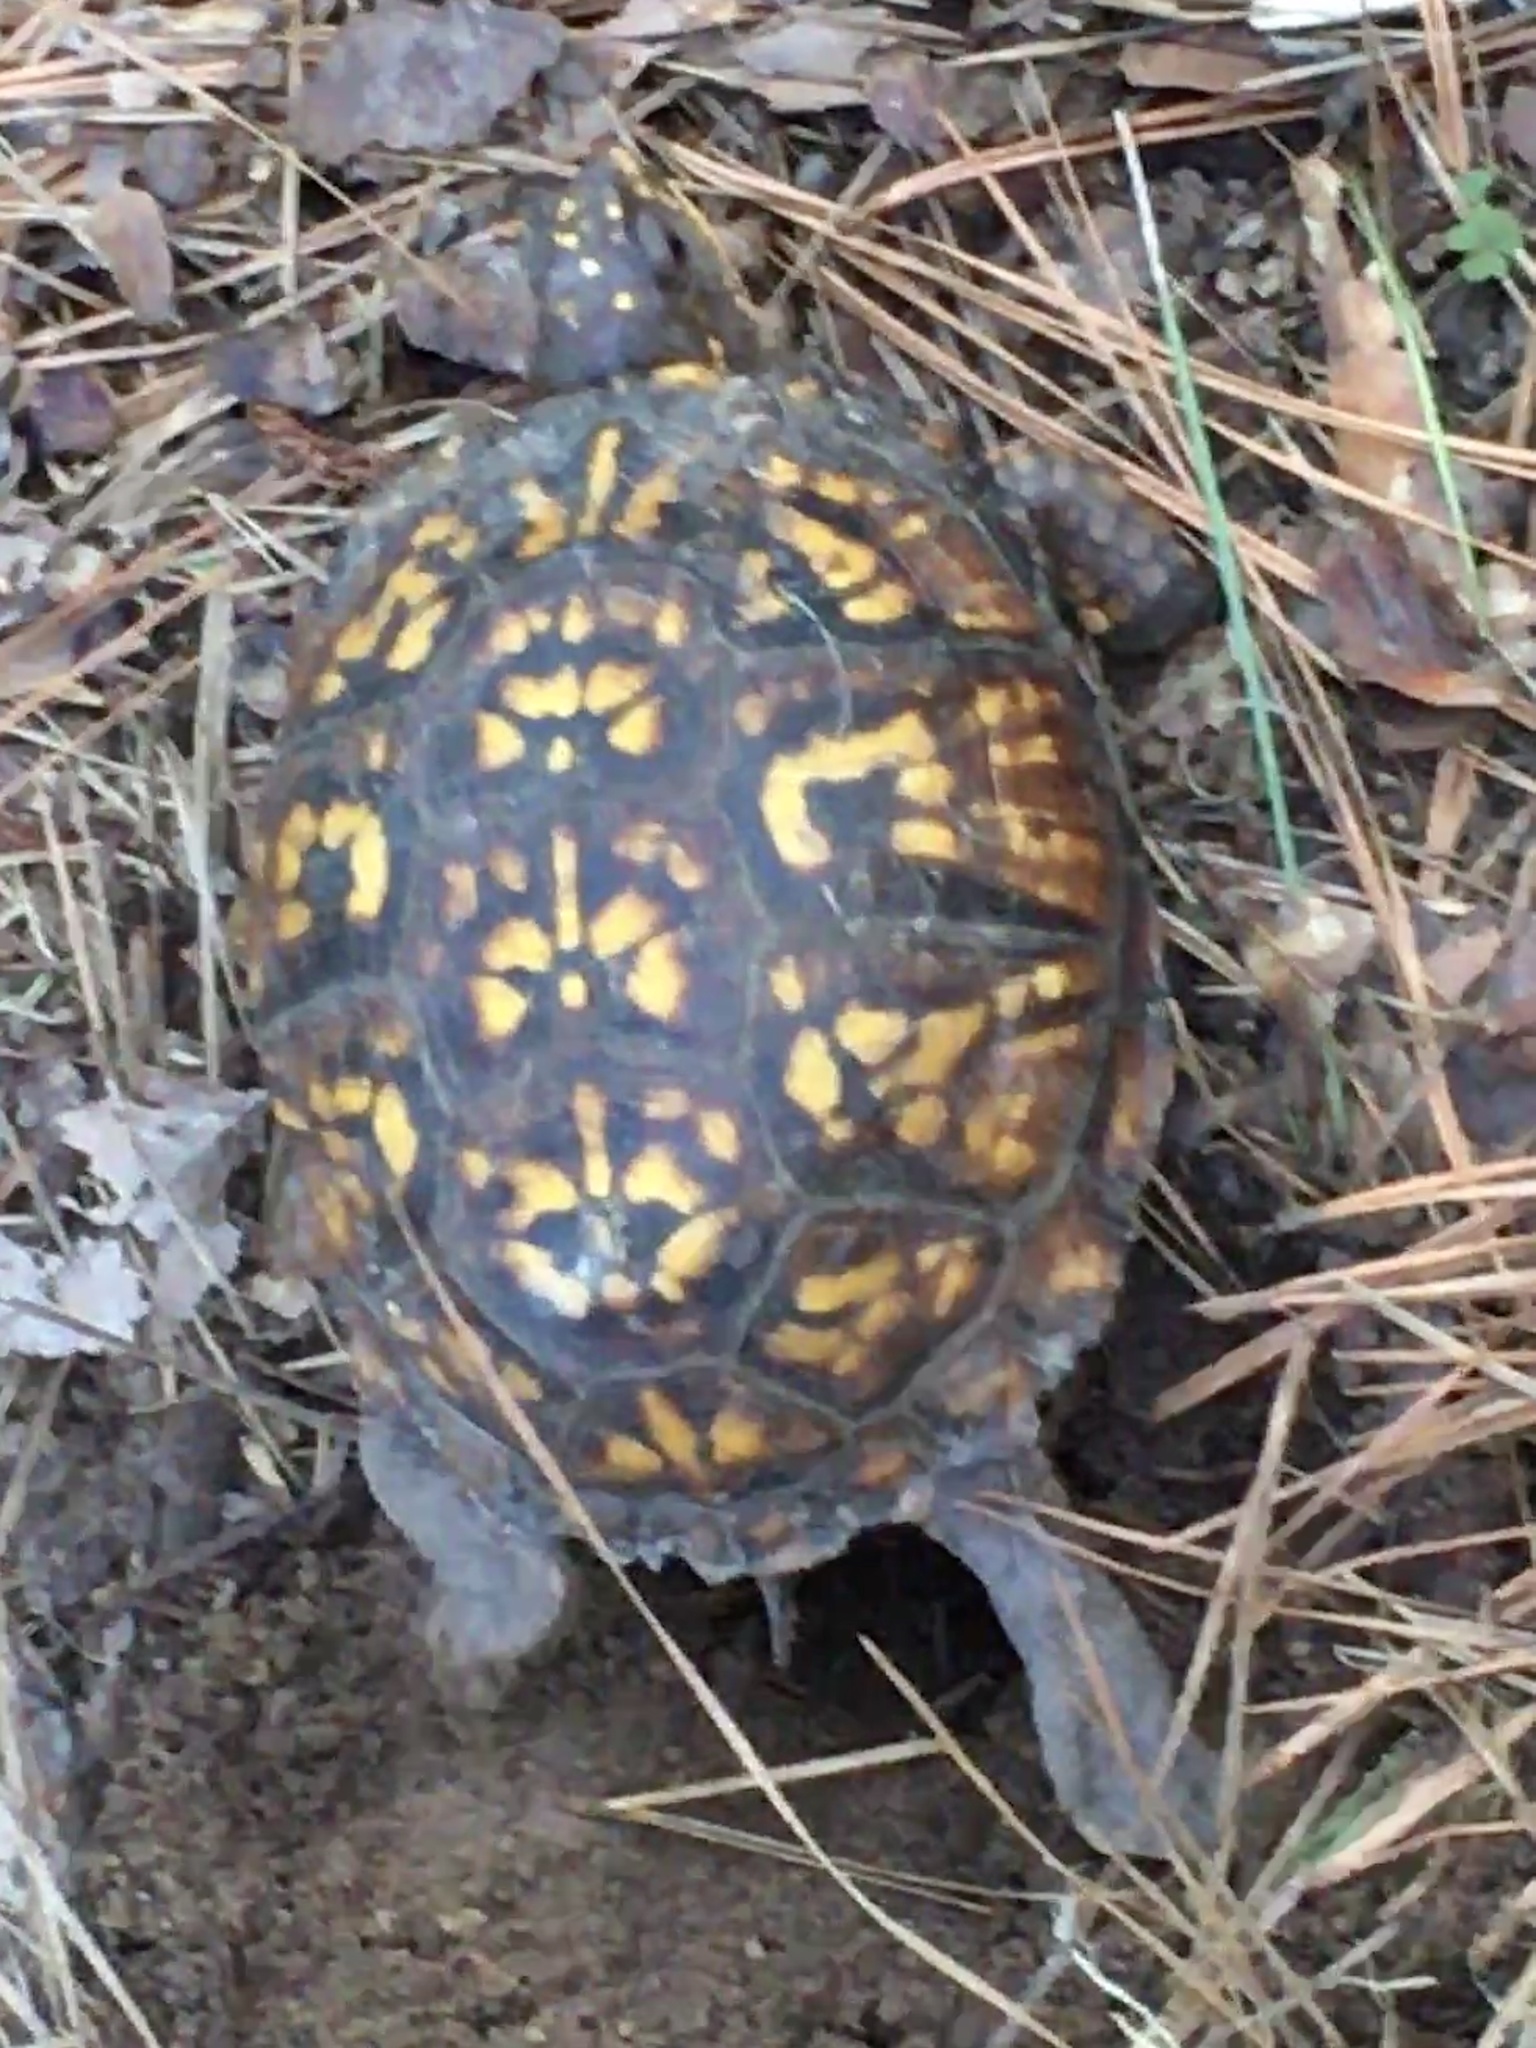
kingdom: Animalia
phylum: Chordata
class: Testudines
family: Emydidae
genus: Terrapene
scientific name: Terrapene carolina
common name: Common box turtle
